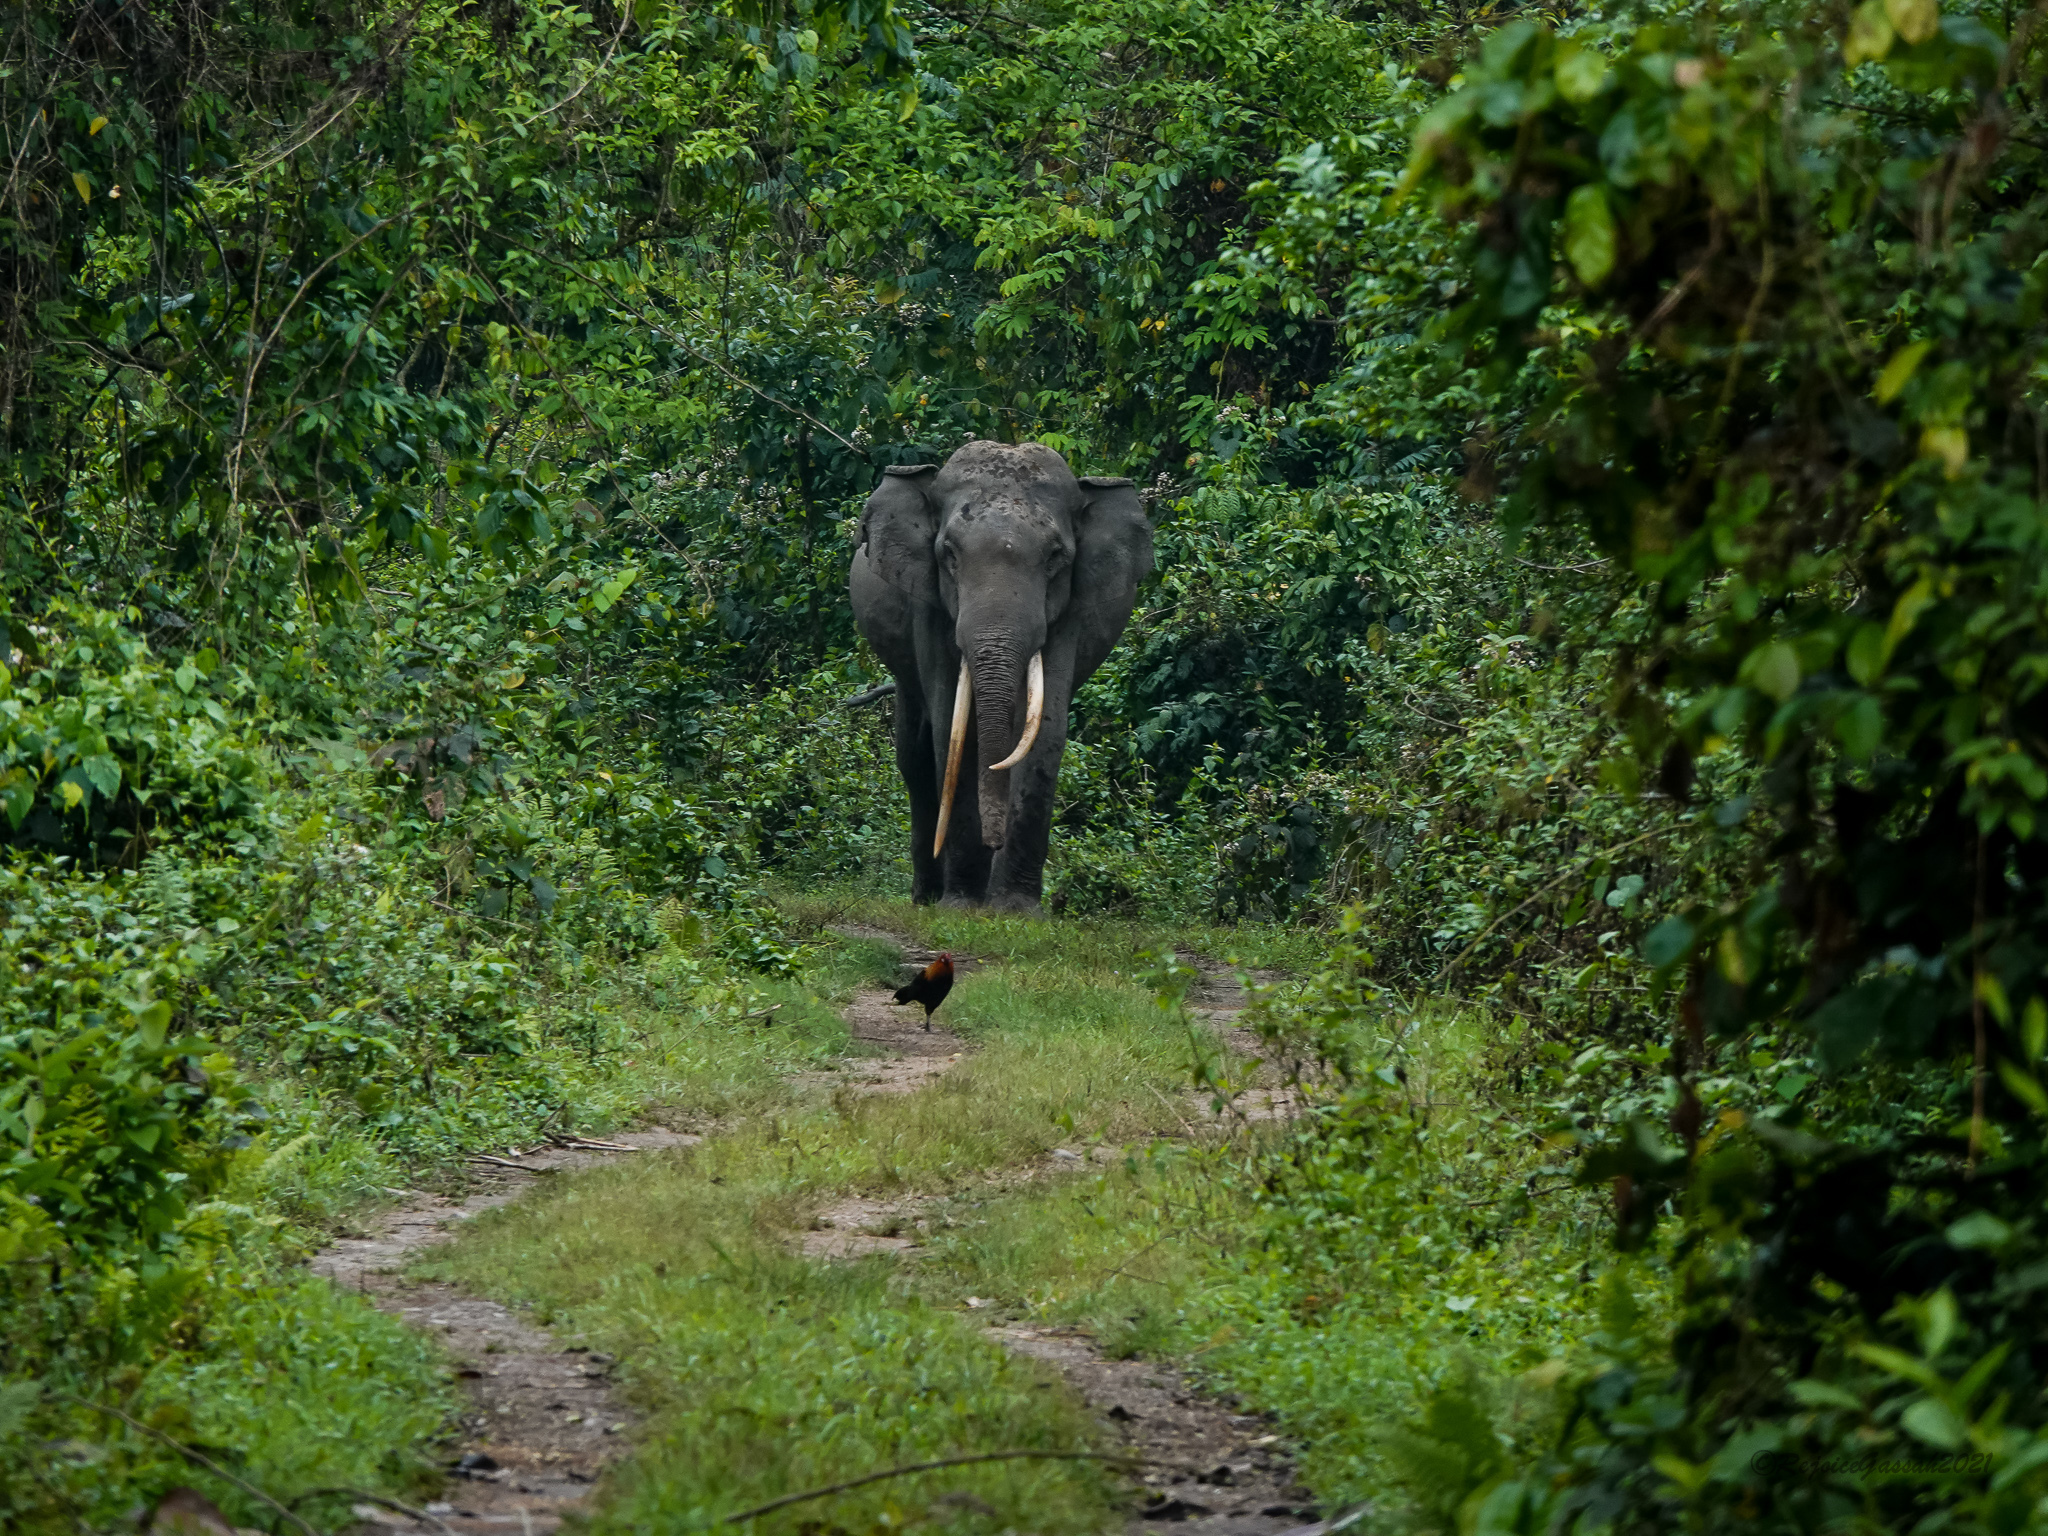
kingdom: Animalia
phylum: Chordata
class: Mammalia
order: Proboscidea
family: Elephantidae
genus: Elephas
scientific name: Elephas maximus
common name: Asian elephant
